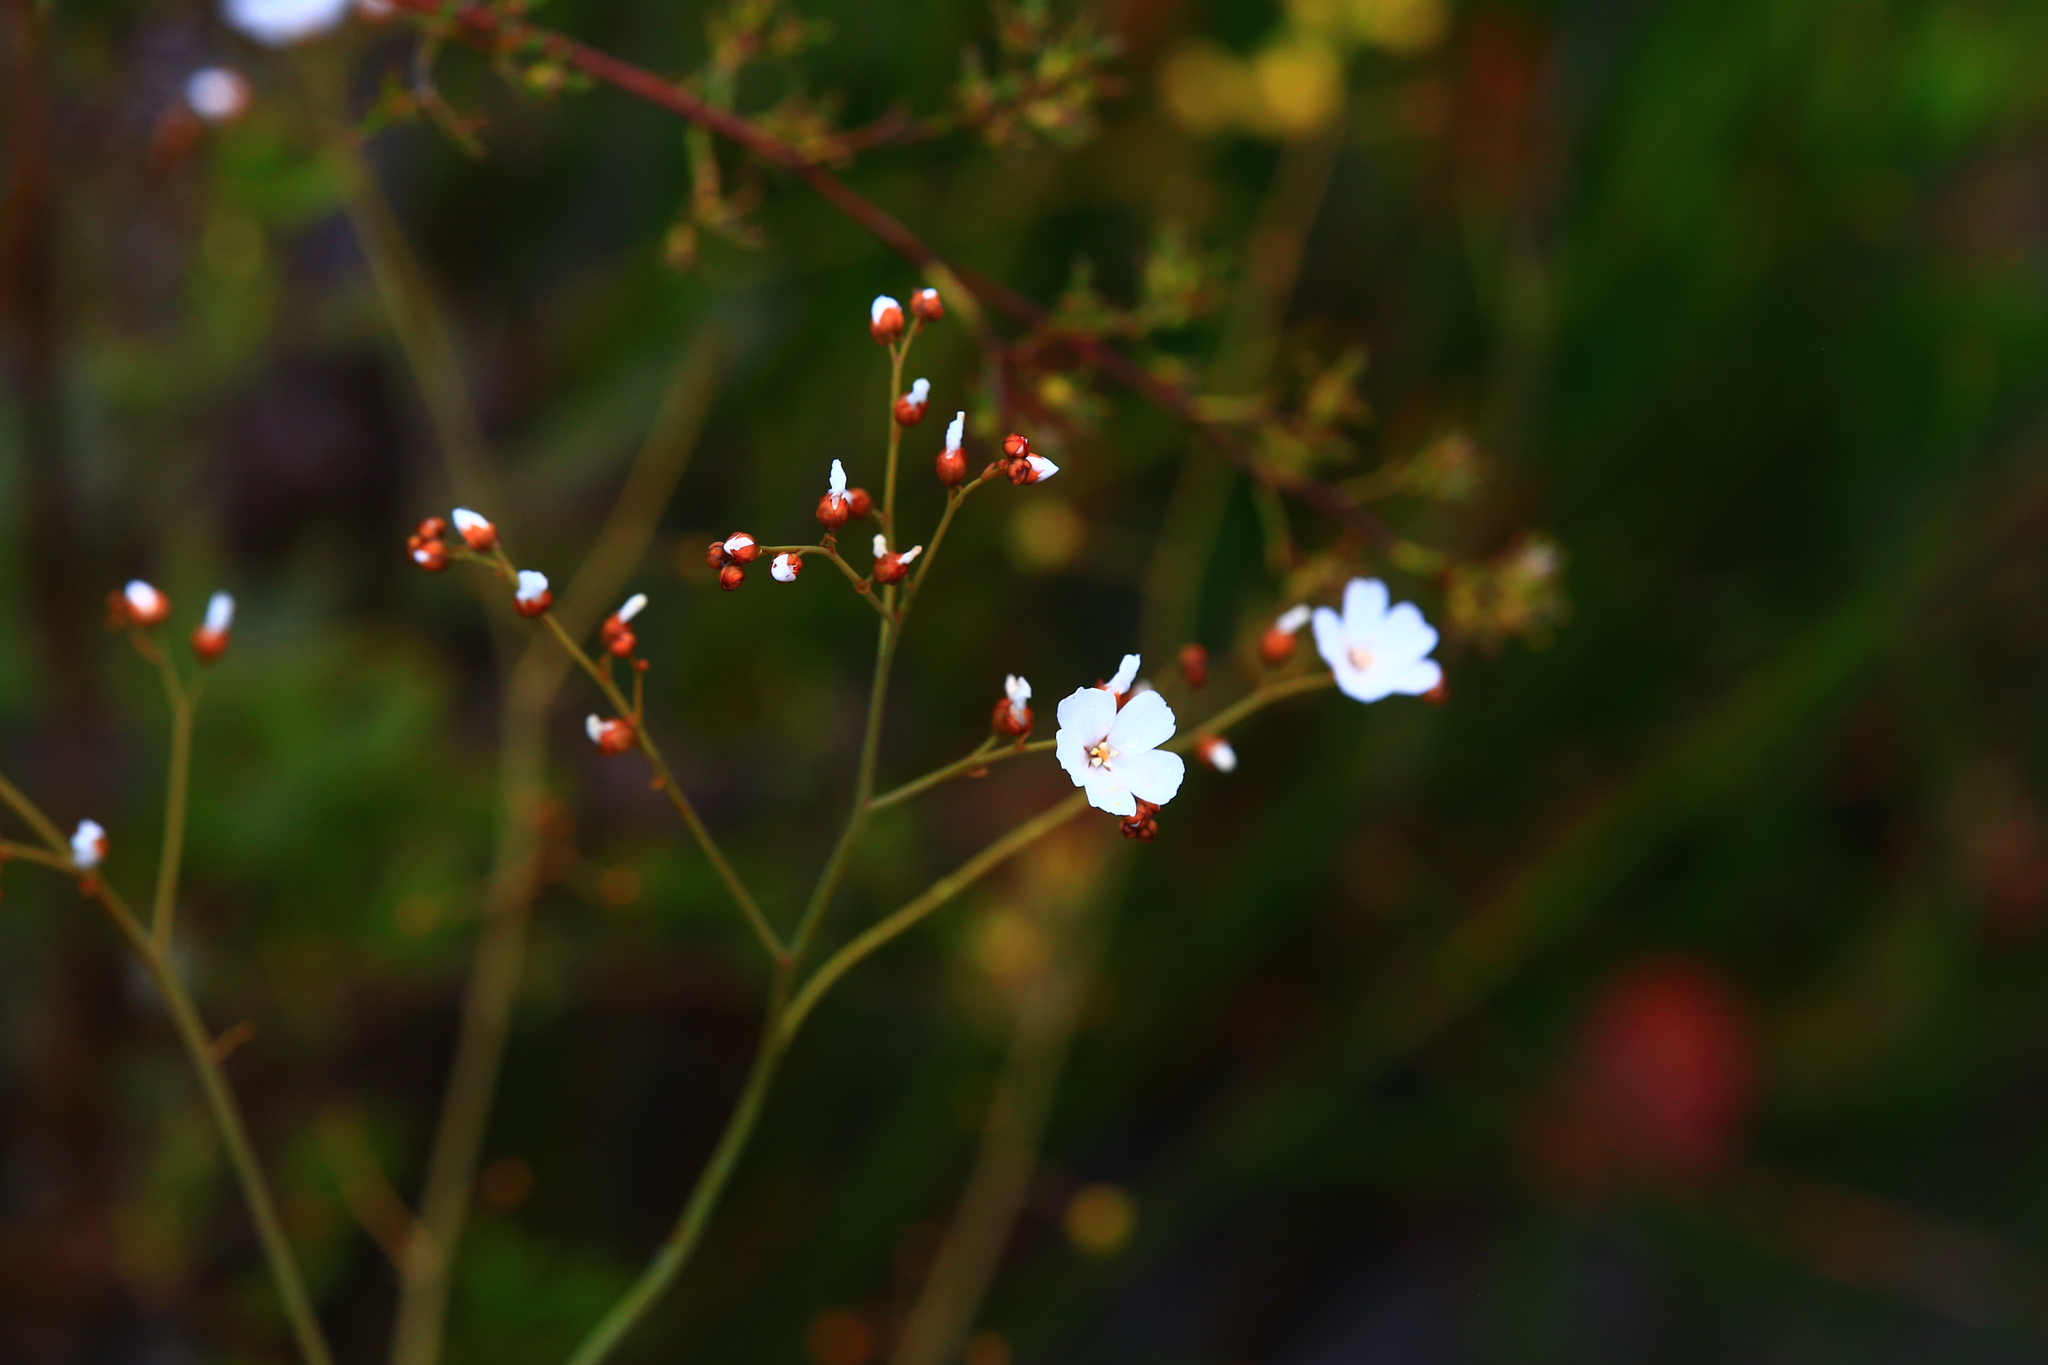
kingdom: Plantae
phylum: Tracheophyta
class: Magnoliopsida
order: Caryophyllales
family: Droseraceae
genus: Drosera
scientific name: Drosera gigantea
